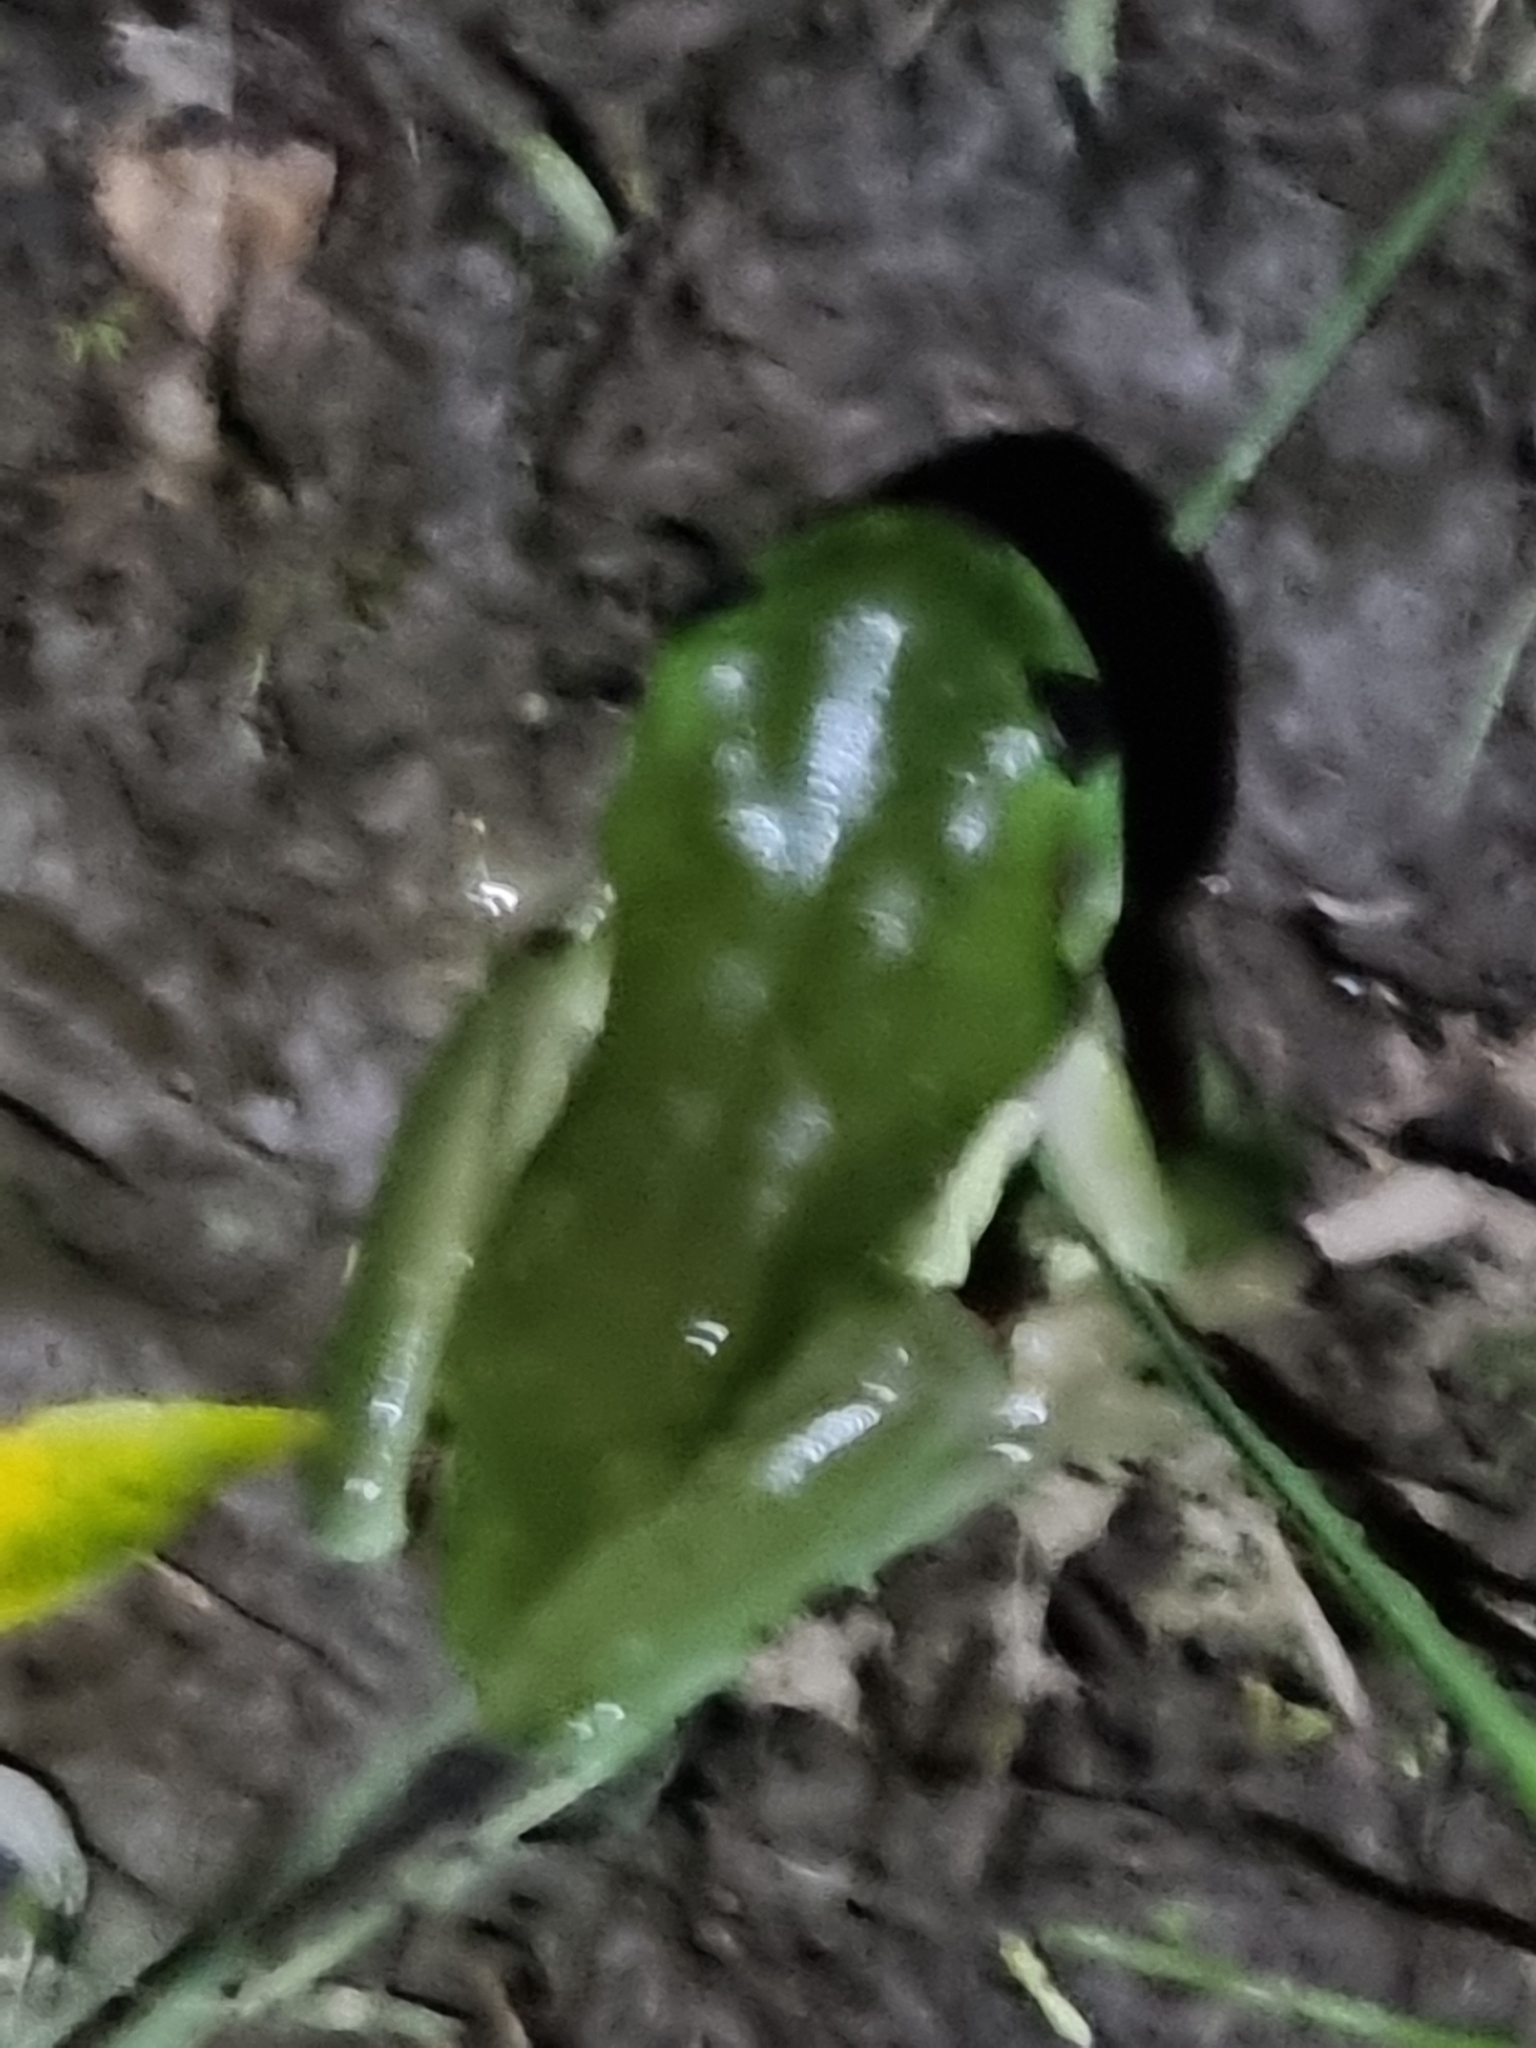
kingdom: Animalia
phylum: Chordata
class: Amphibia
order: Anura
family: Pelodryadidae
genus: Ranoidea
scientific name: Ranoidea caerulea
